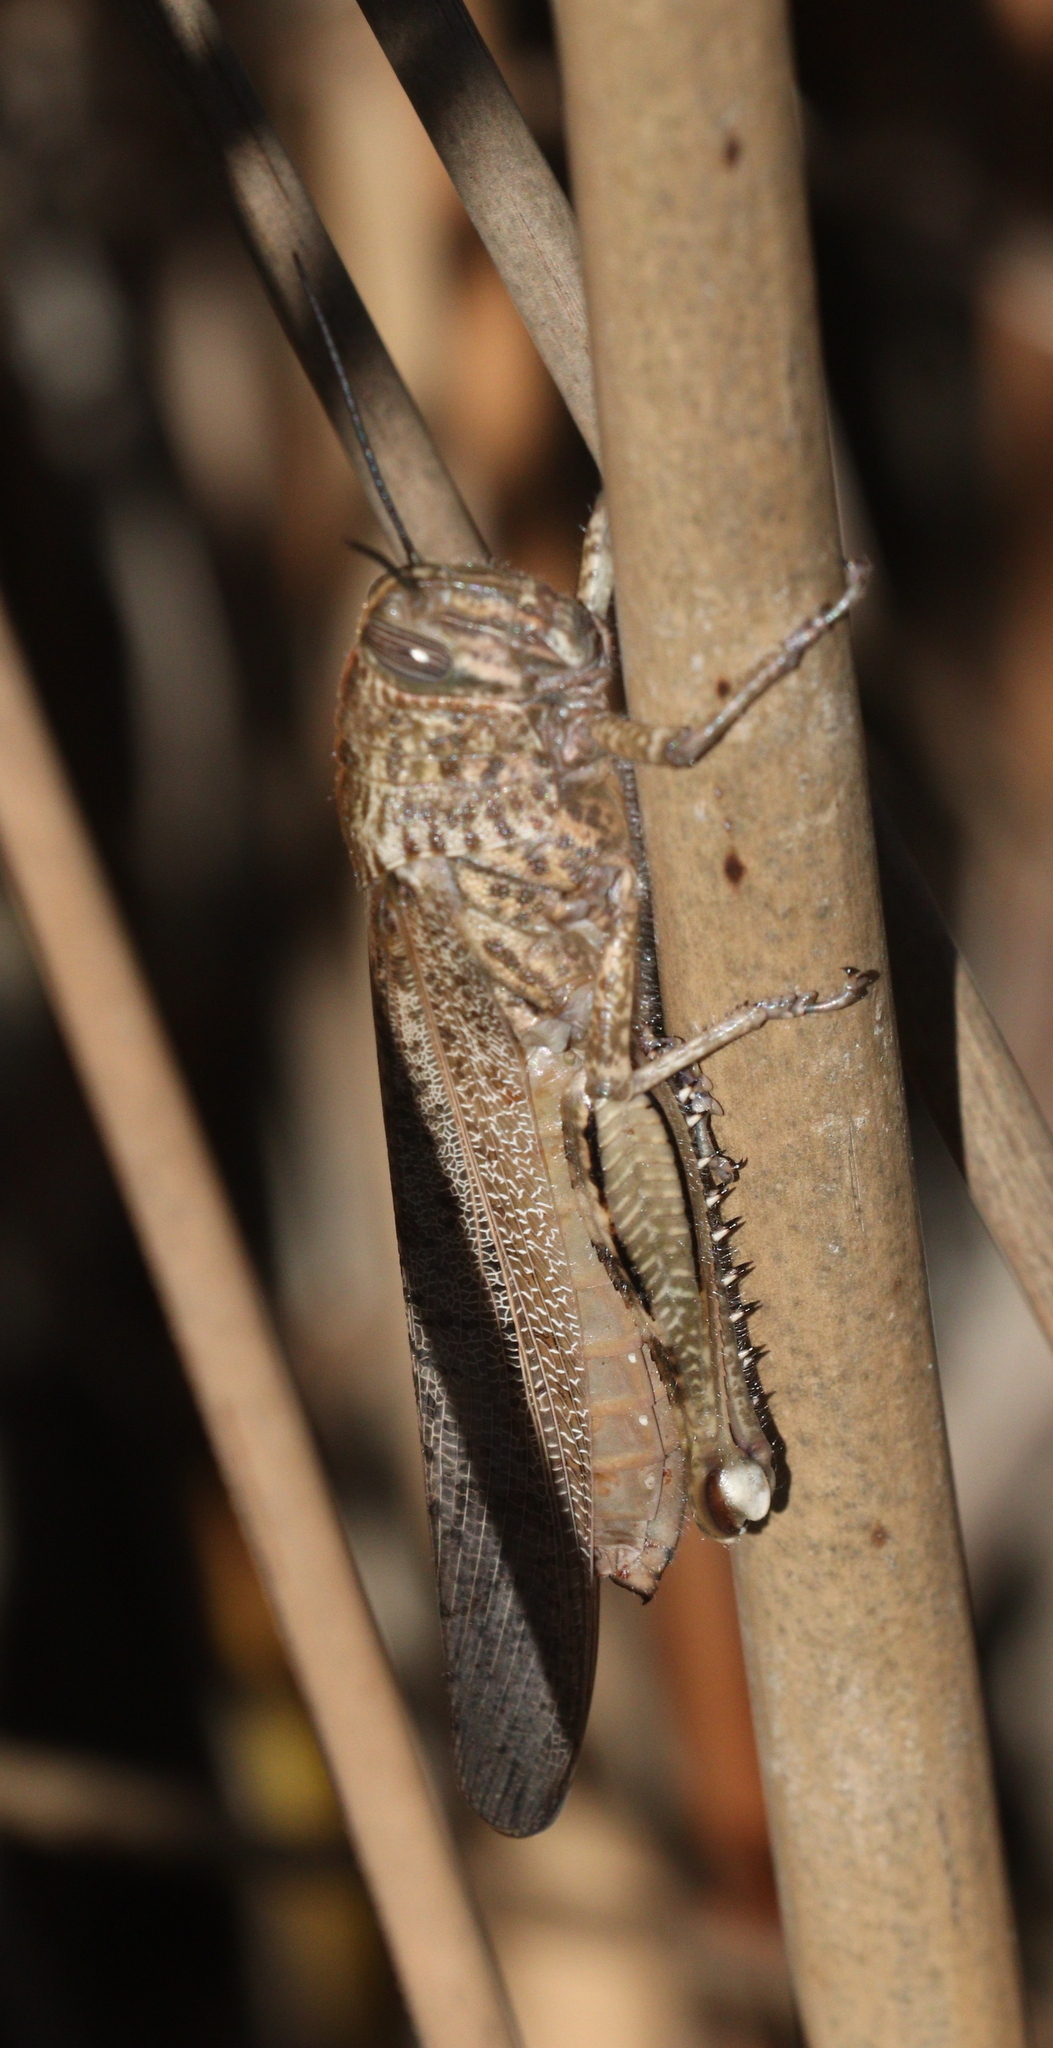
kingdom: Animalia
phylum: Arthropoda
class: Insecta
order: Orthoptera
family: Acrididae
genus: Anacridium
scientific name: Anacridium aegyptium
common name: Egyptian grasshopper
